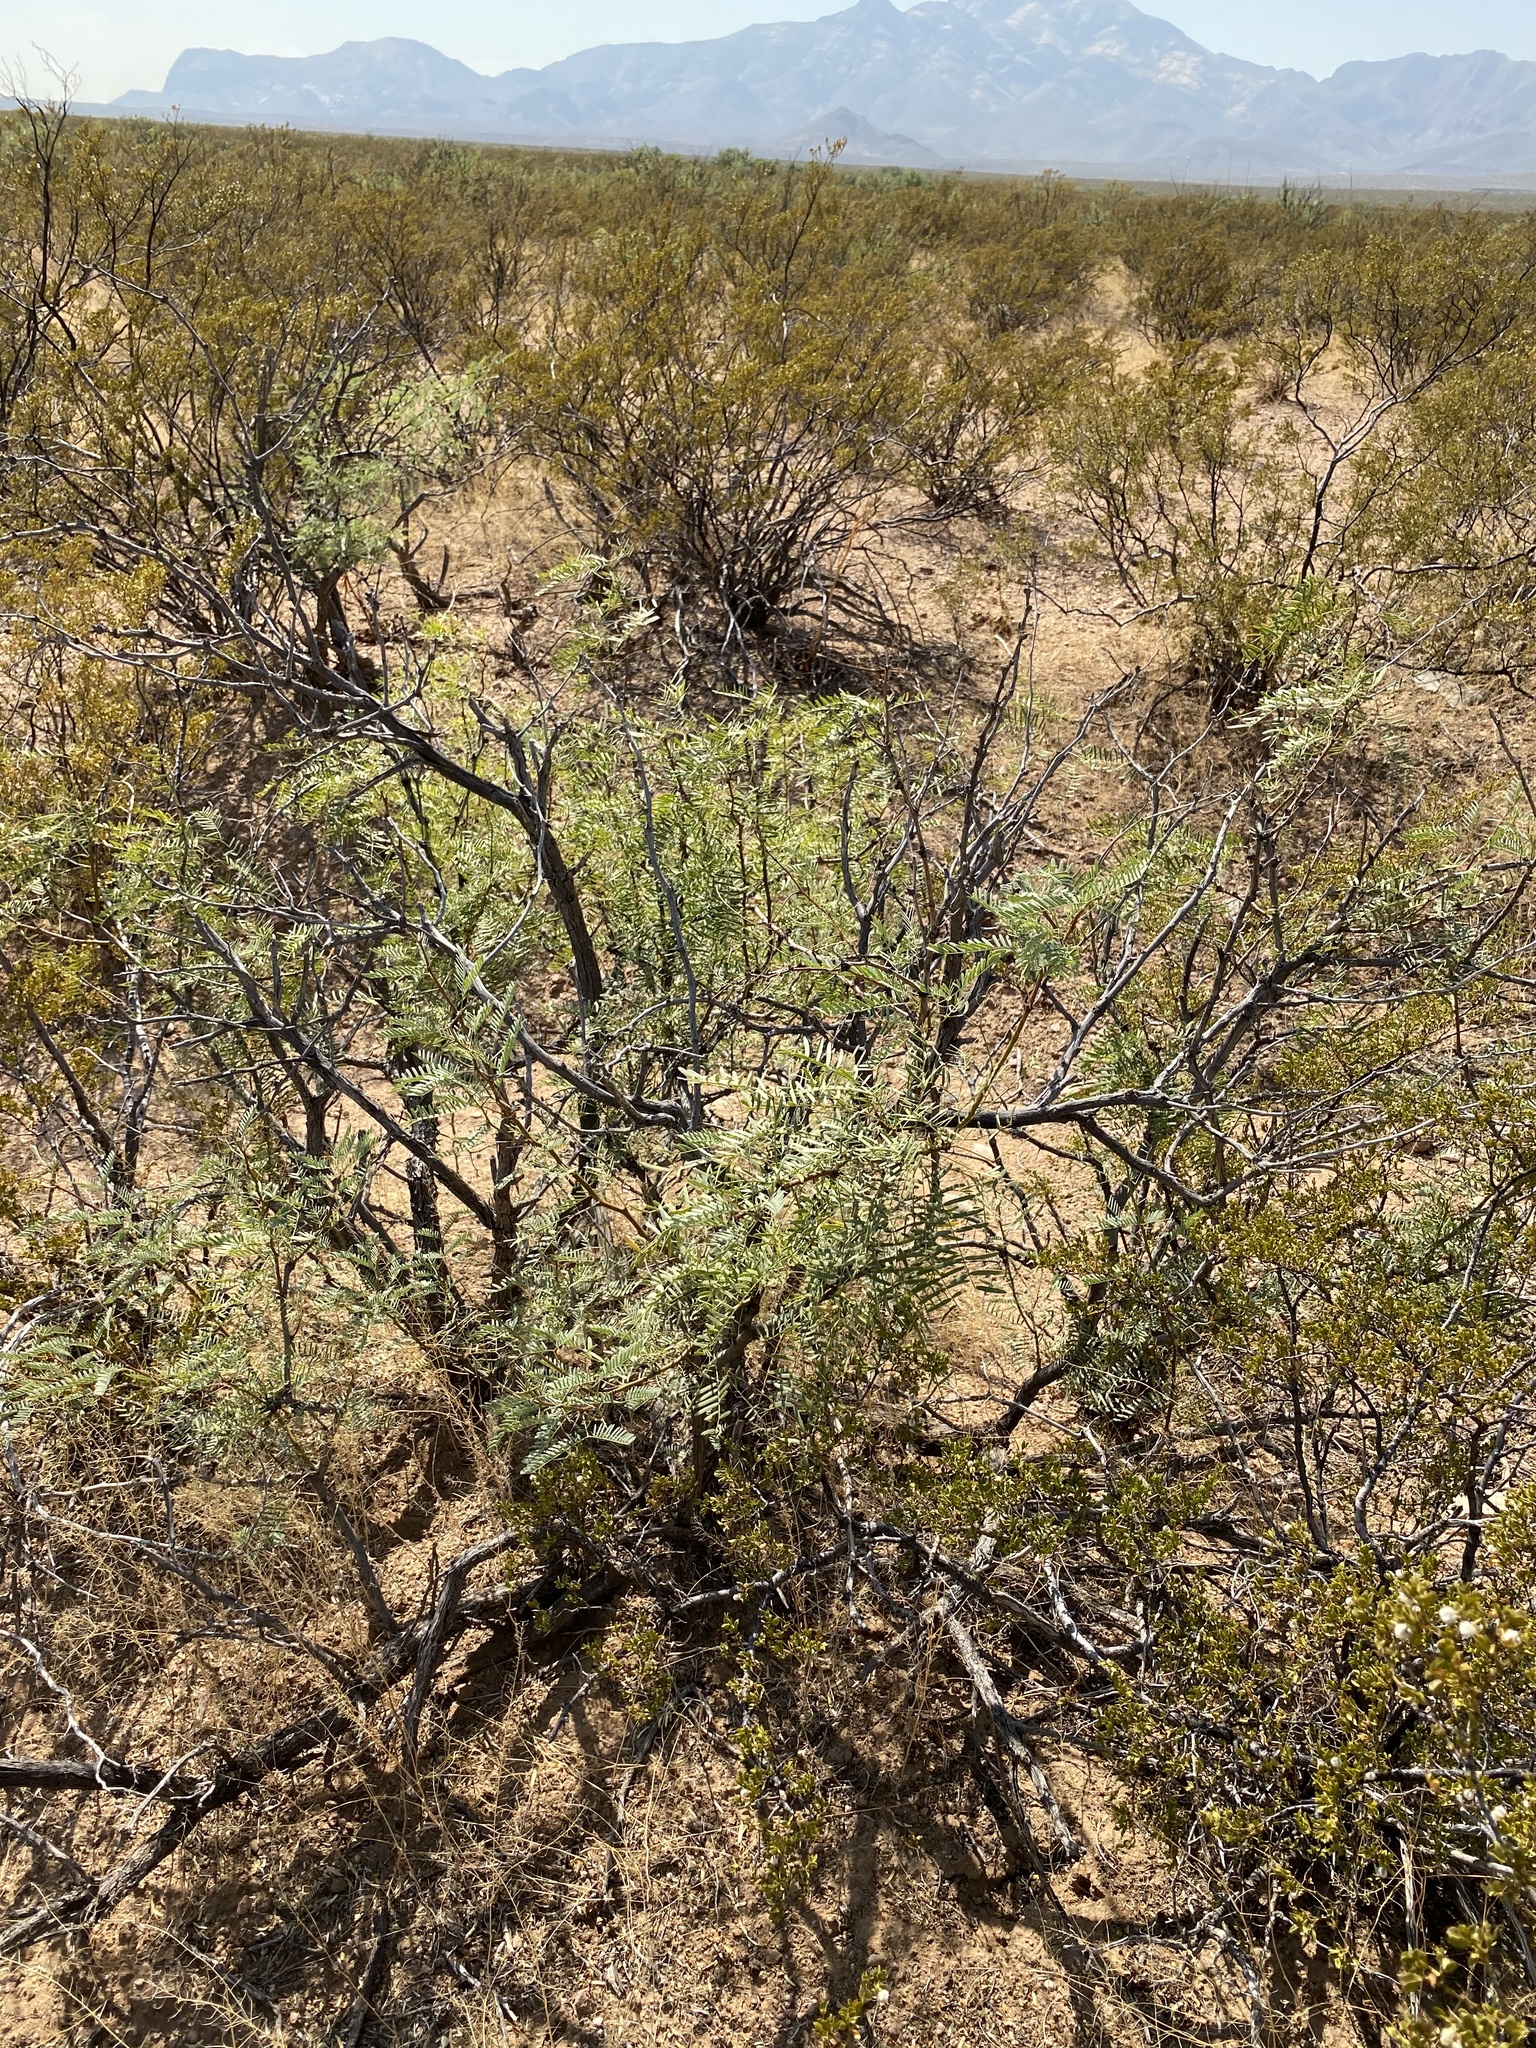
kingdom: Plantae
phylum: Tracheophyta
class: Magnoliopsida
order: Fabales
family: Fabaceae
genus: Prosopis
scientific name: Prosopis glandulosa
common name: Honey mesquite
